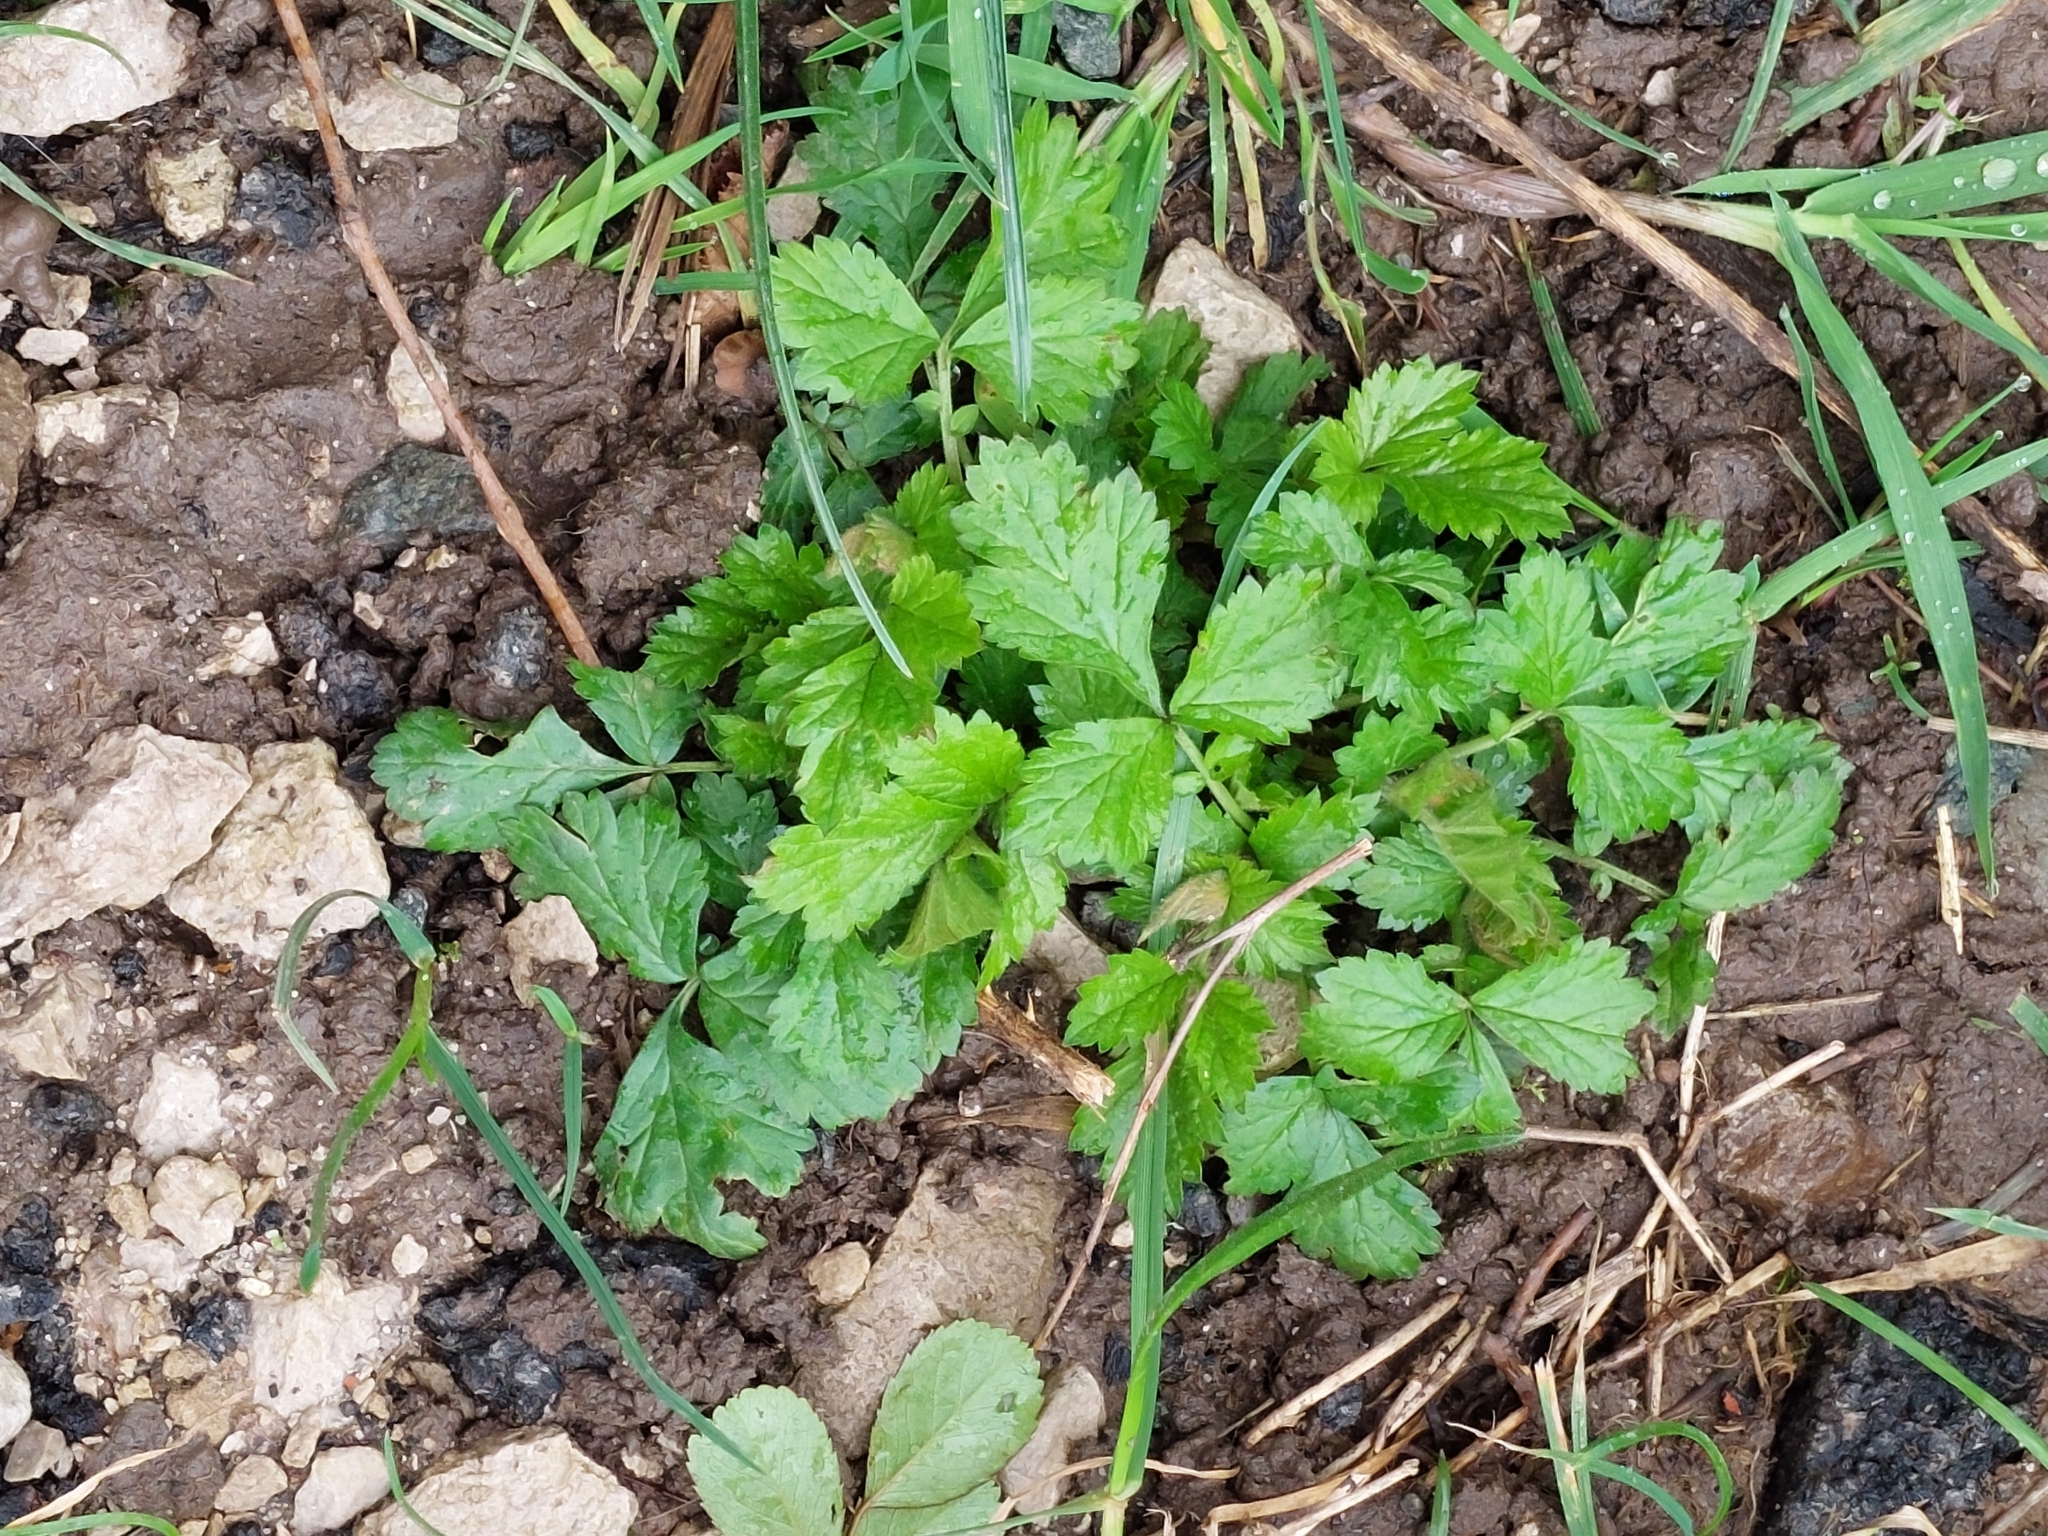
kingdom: Plantae
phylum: Tracheophyta
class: Magnoliopsida
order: Rosales
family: Rosaceae
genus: Geum
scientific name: Geum urbanum
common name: Wood avens
